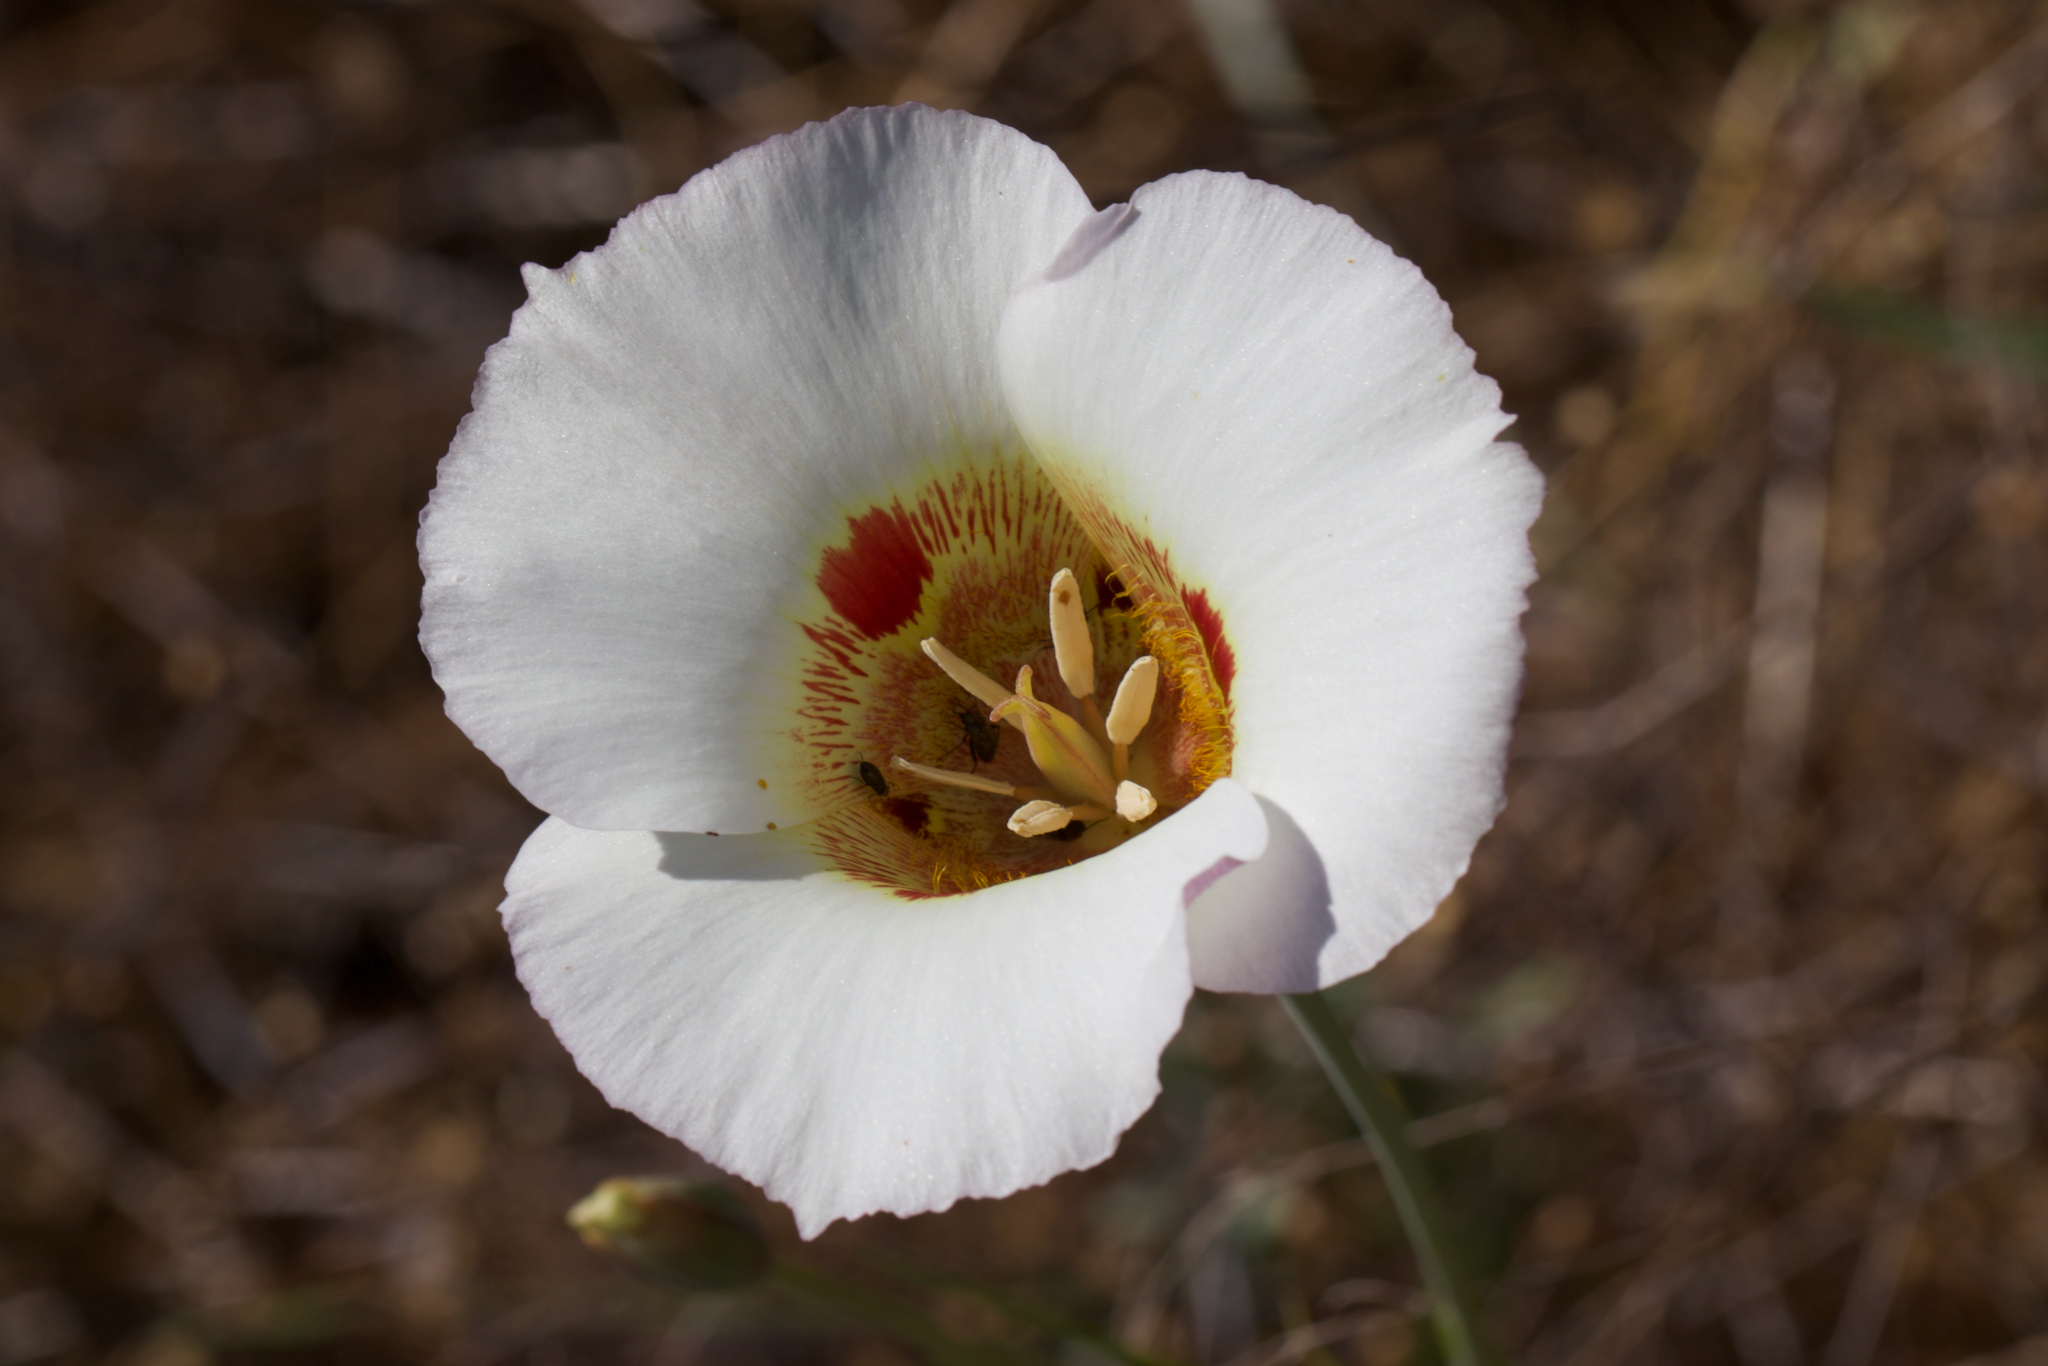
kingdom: Plantae
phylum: Tracheophyta
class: Liliopsida
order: Liliales
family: Liliaceae
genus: Calochortus
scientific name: Calochortus vestae
